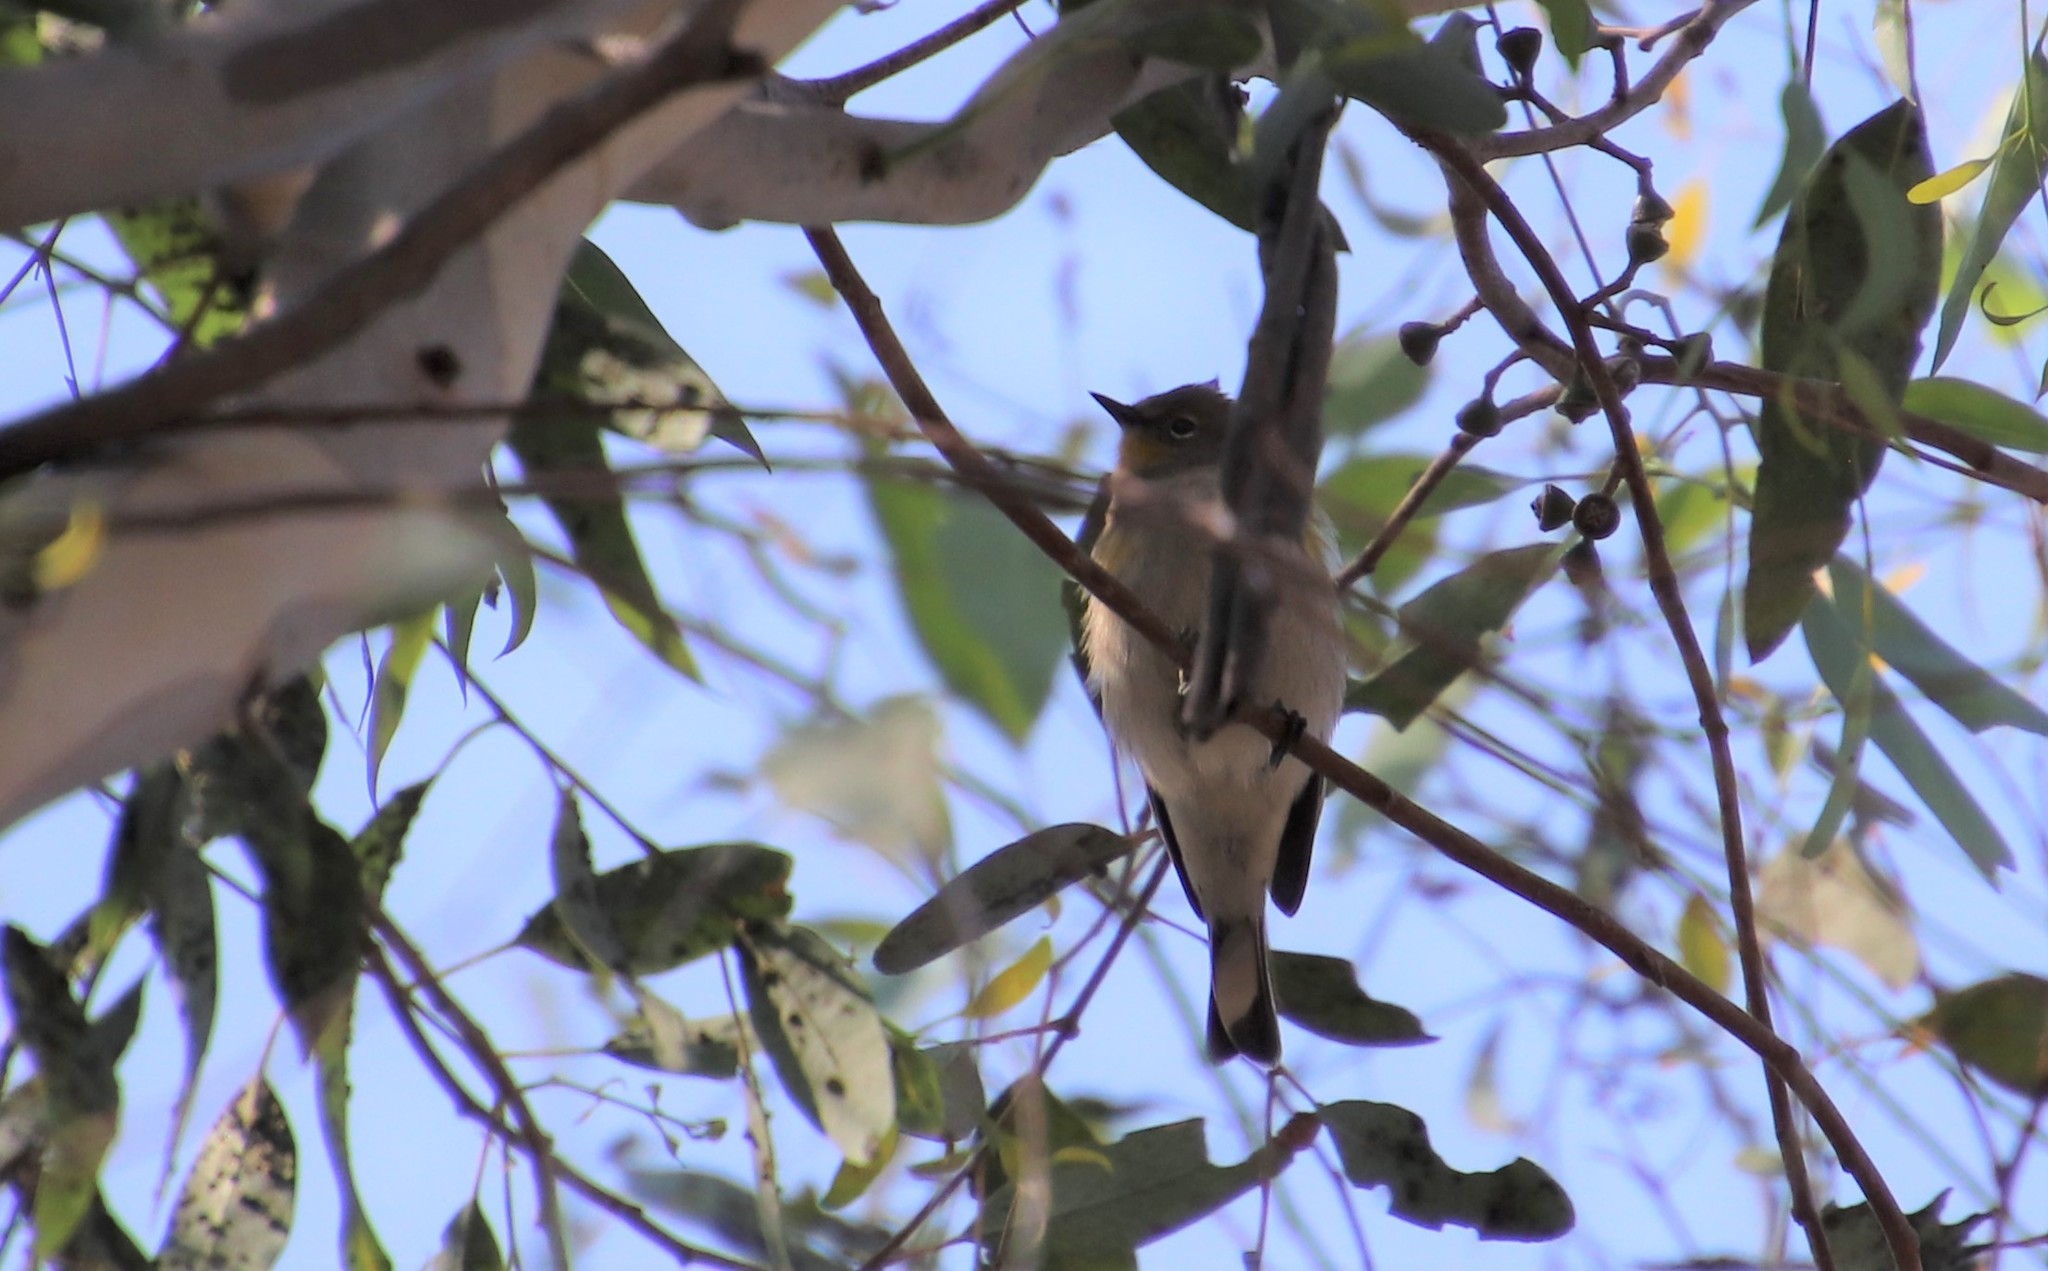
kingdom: Animalia
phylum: Chordata
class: Aves
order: Passeriformes
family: Parulidae
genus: Setophaga
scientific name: Setophaga auduboni
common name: Audubon's warbler
